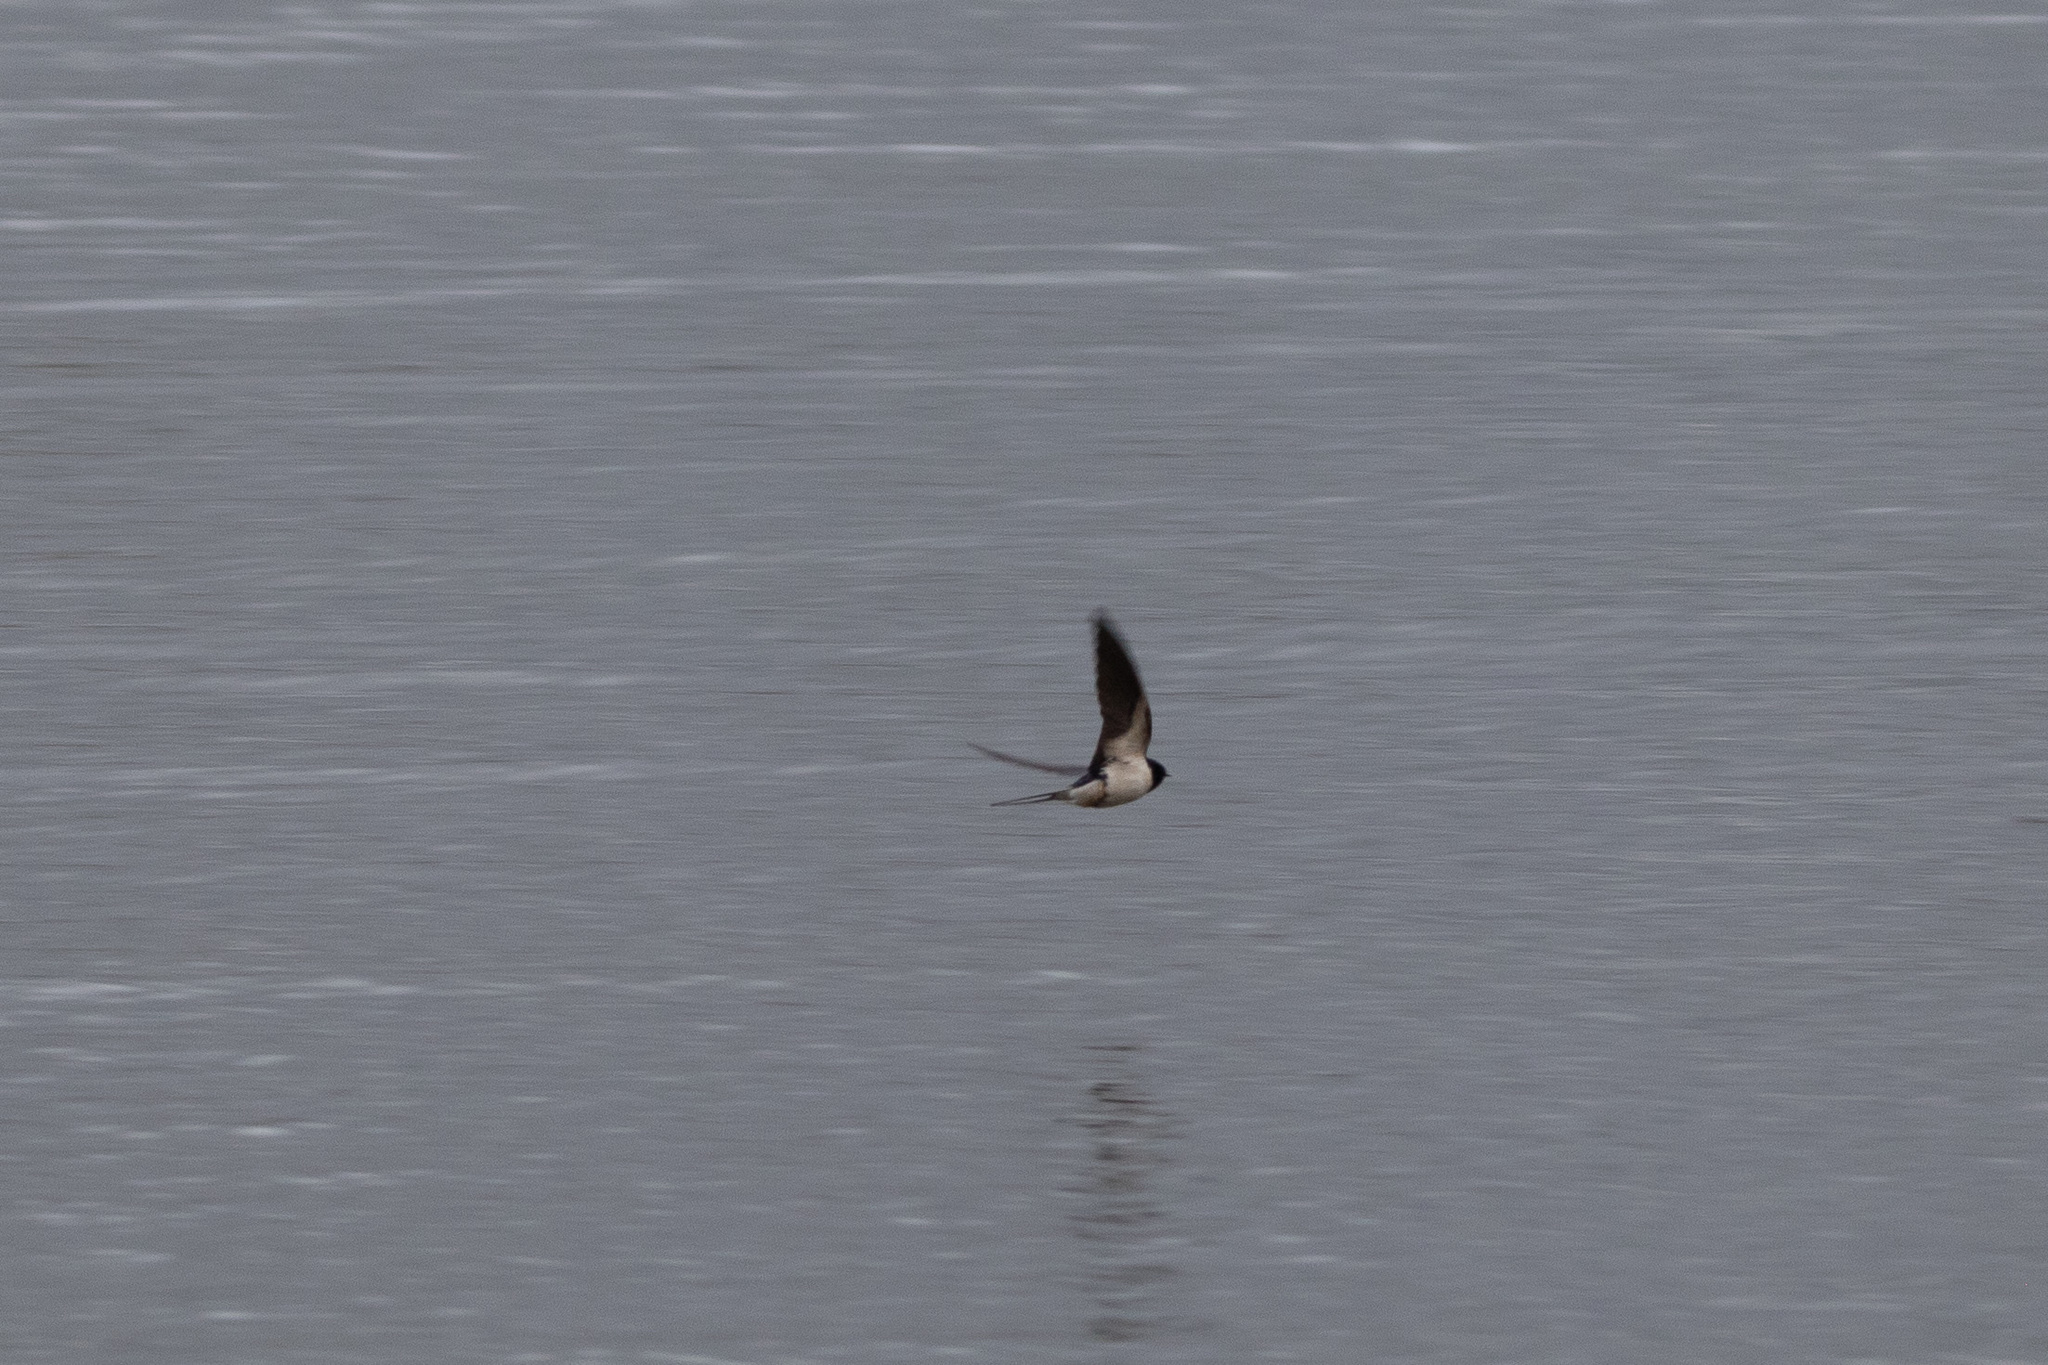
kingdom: Animalia
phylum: Chordata
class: Aves
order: Passeriformes
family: Hirundinidae
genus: Hirundo
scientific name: Hirundo rustica
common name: Barn swallow
